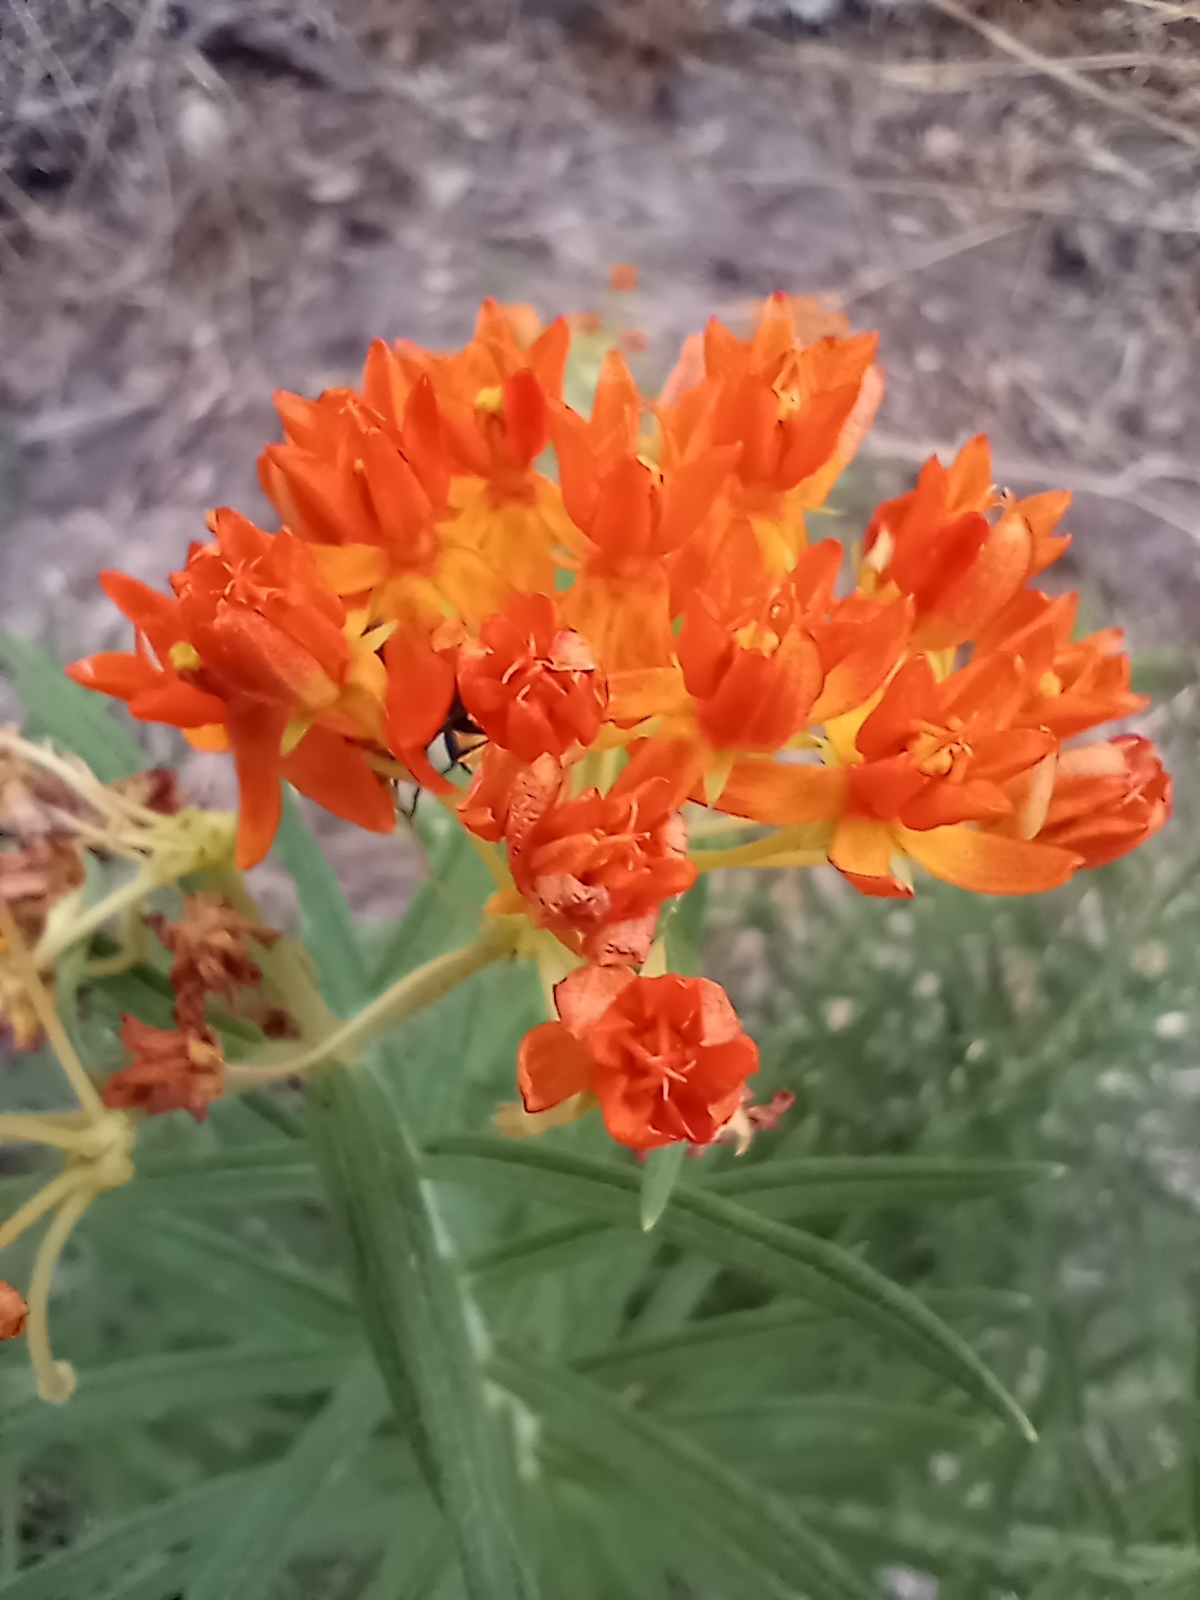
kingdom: Plantae
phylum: Tracheophyta
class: Magnoliopsida
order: Gentianales
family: Apocynaceae
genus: Asclepias
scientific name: Asclepias tuberosa
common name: Butterfly milkweed
